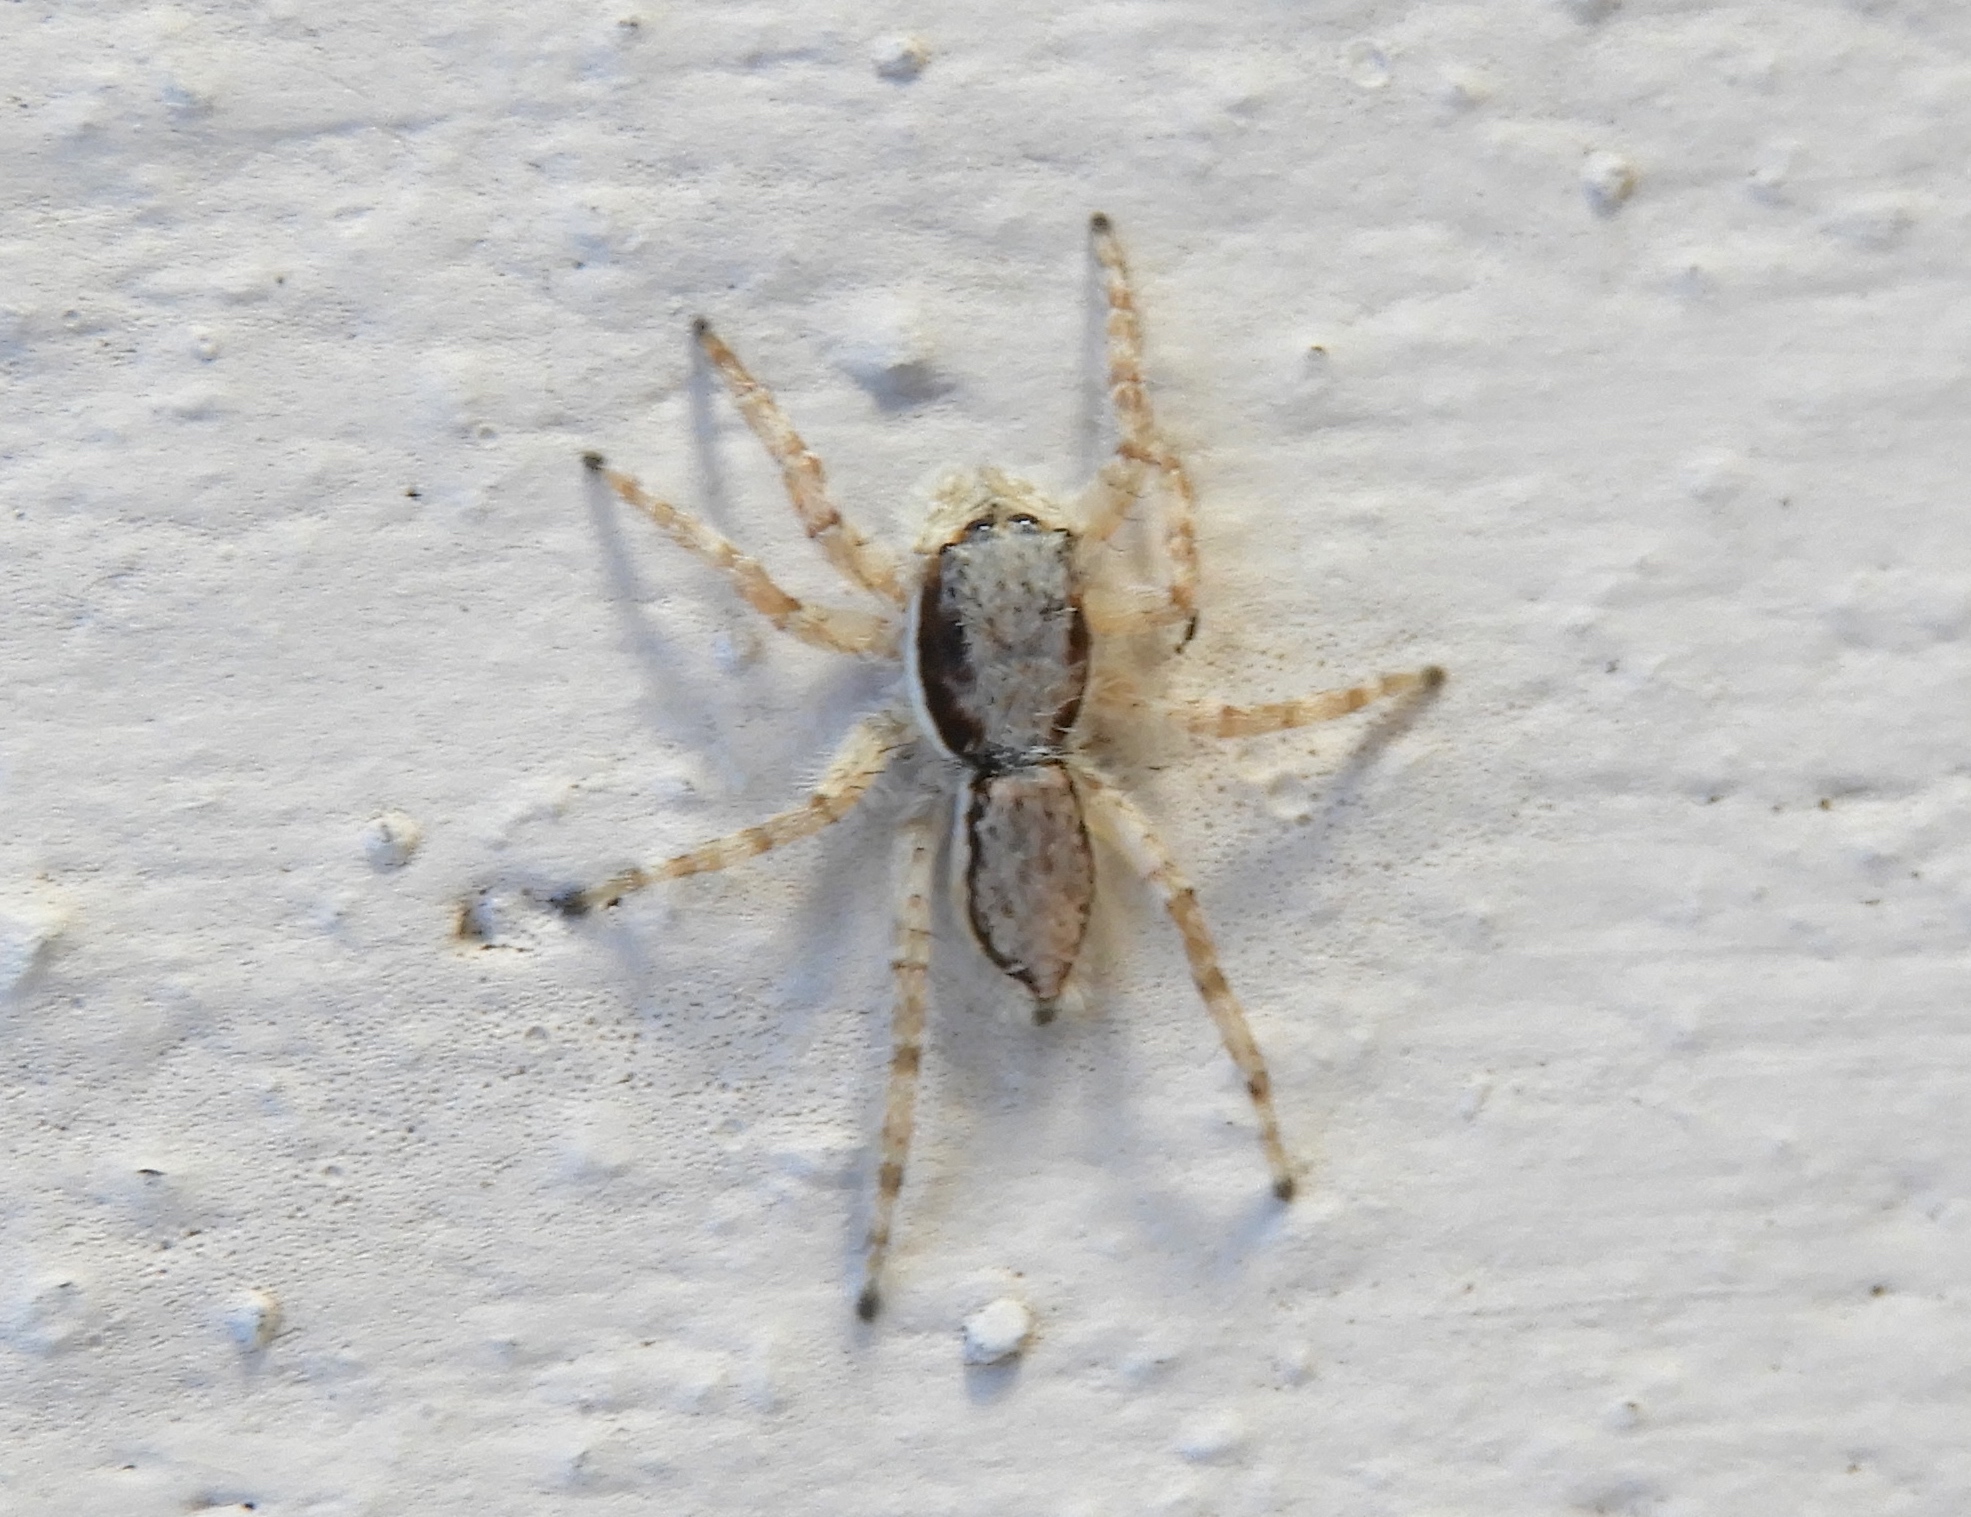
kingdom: Animalia
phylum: Arthropoda
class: Arachnida
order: Araneae
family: Salticidae
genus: Menemerus
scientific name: Menemerus bivittatus
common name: Gray wall jumper
